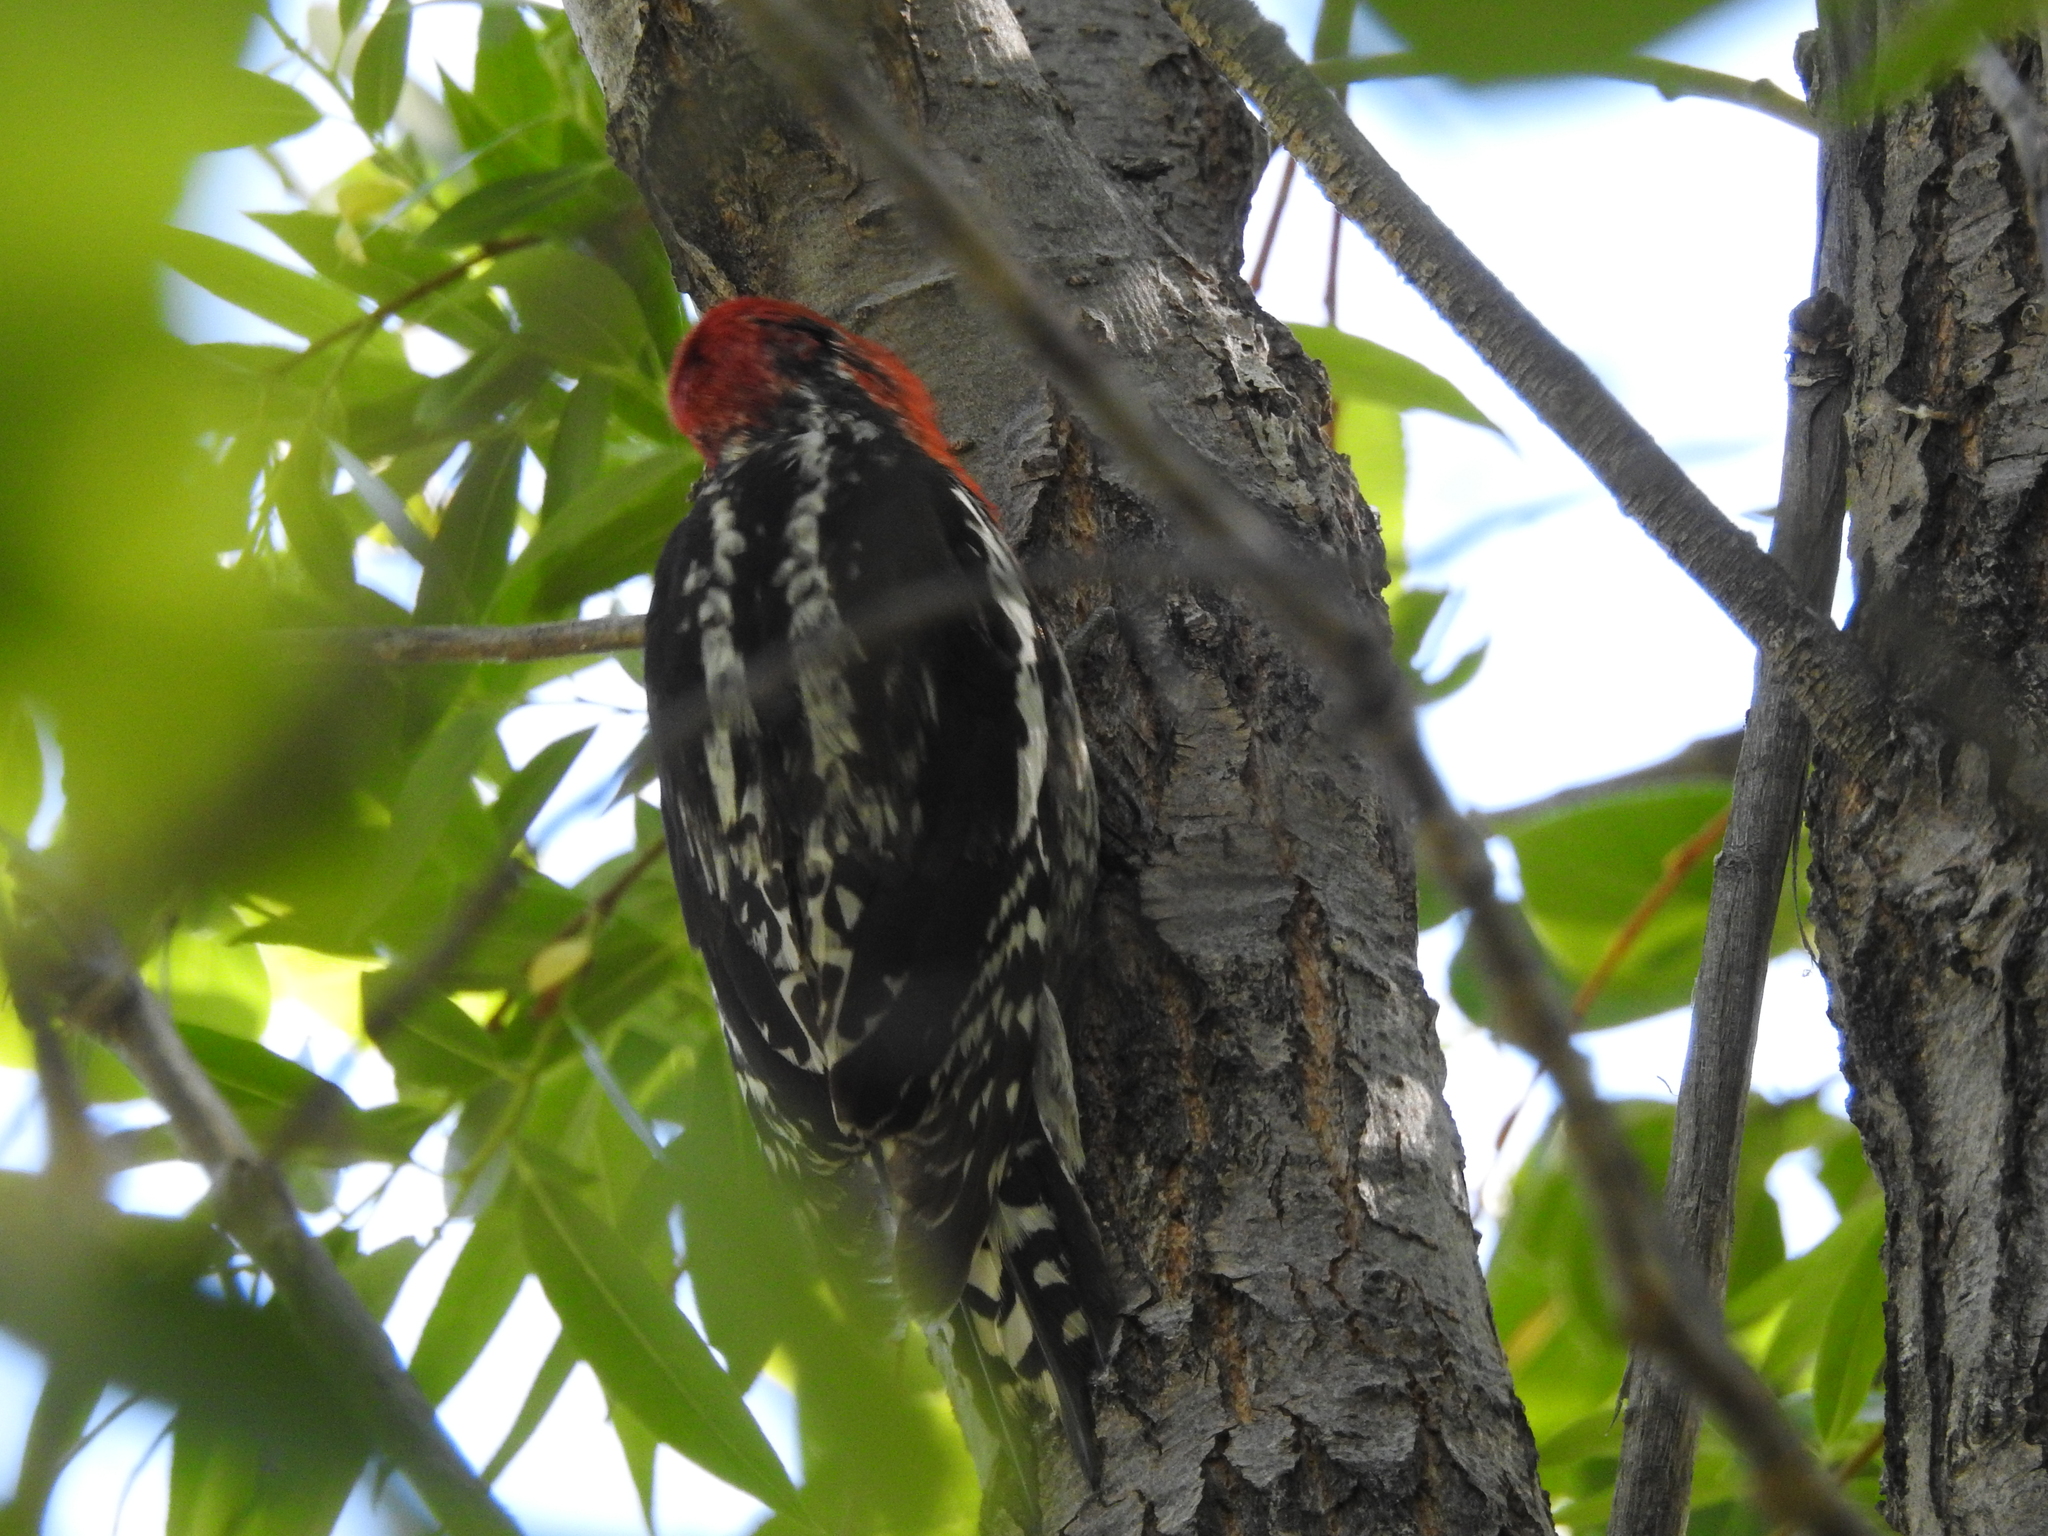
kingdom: Animalia
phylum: Chordata
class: Aves
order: Piciformes
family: Picidae
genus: Sphyrapicus
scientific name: Sphyrapicus ruber
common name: Red-breasted sapsucker
